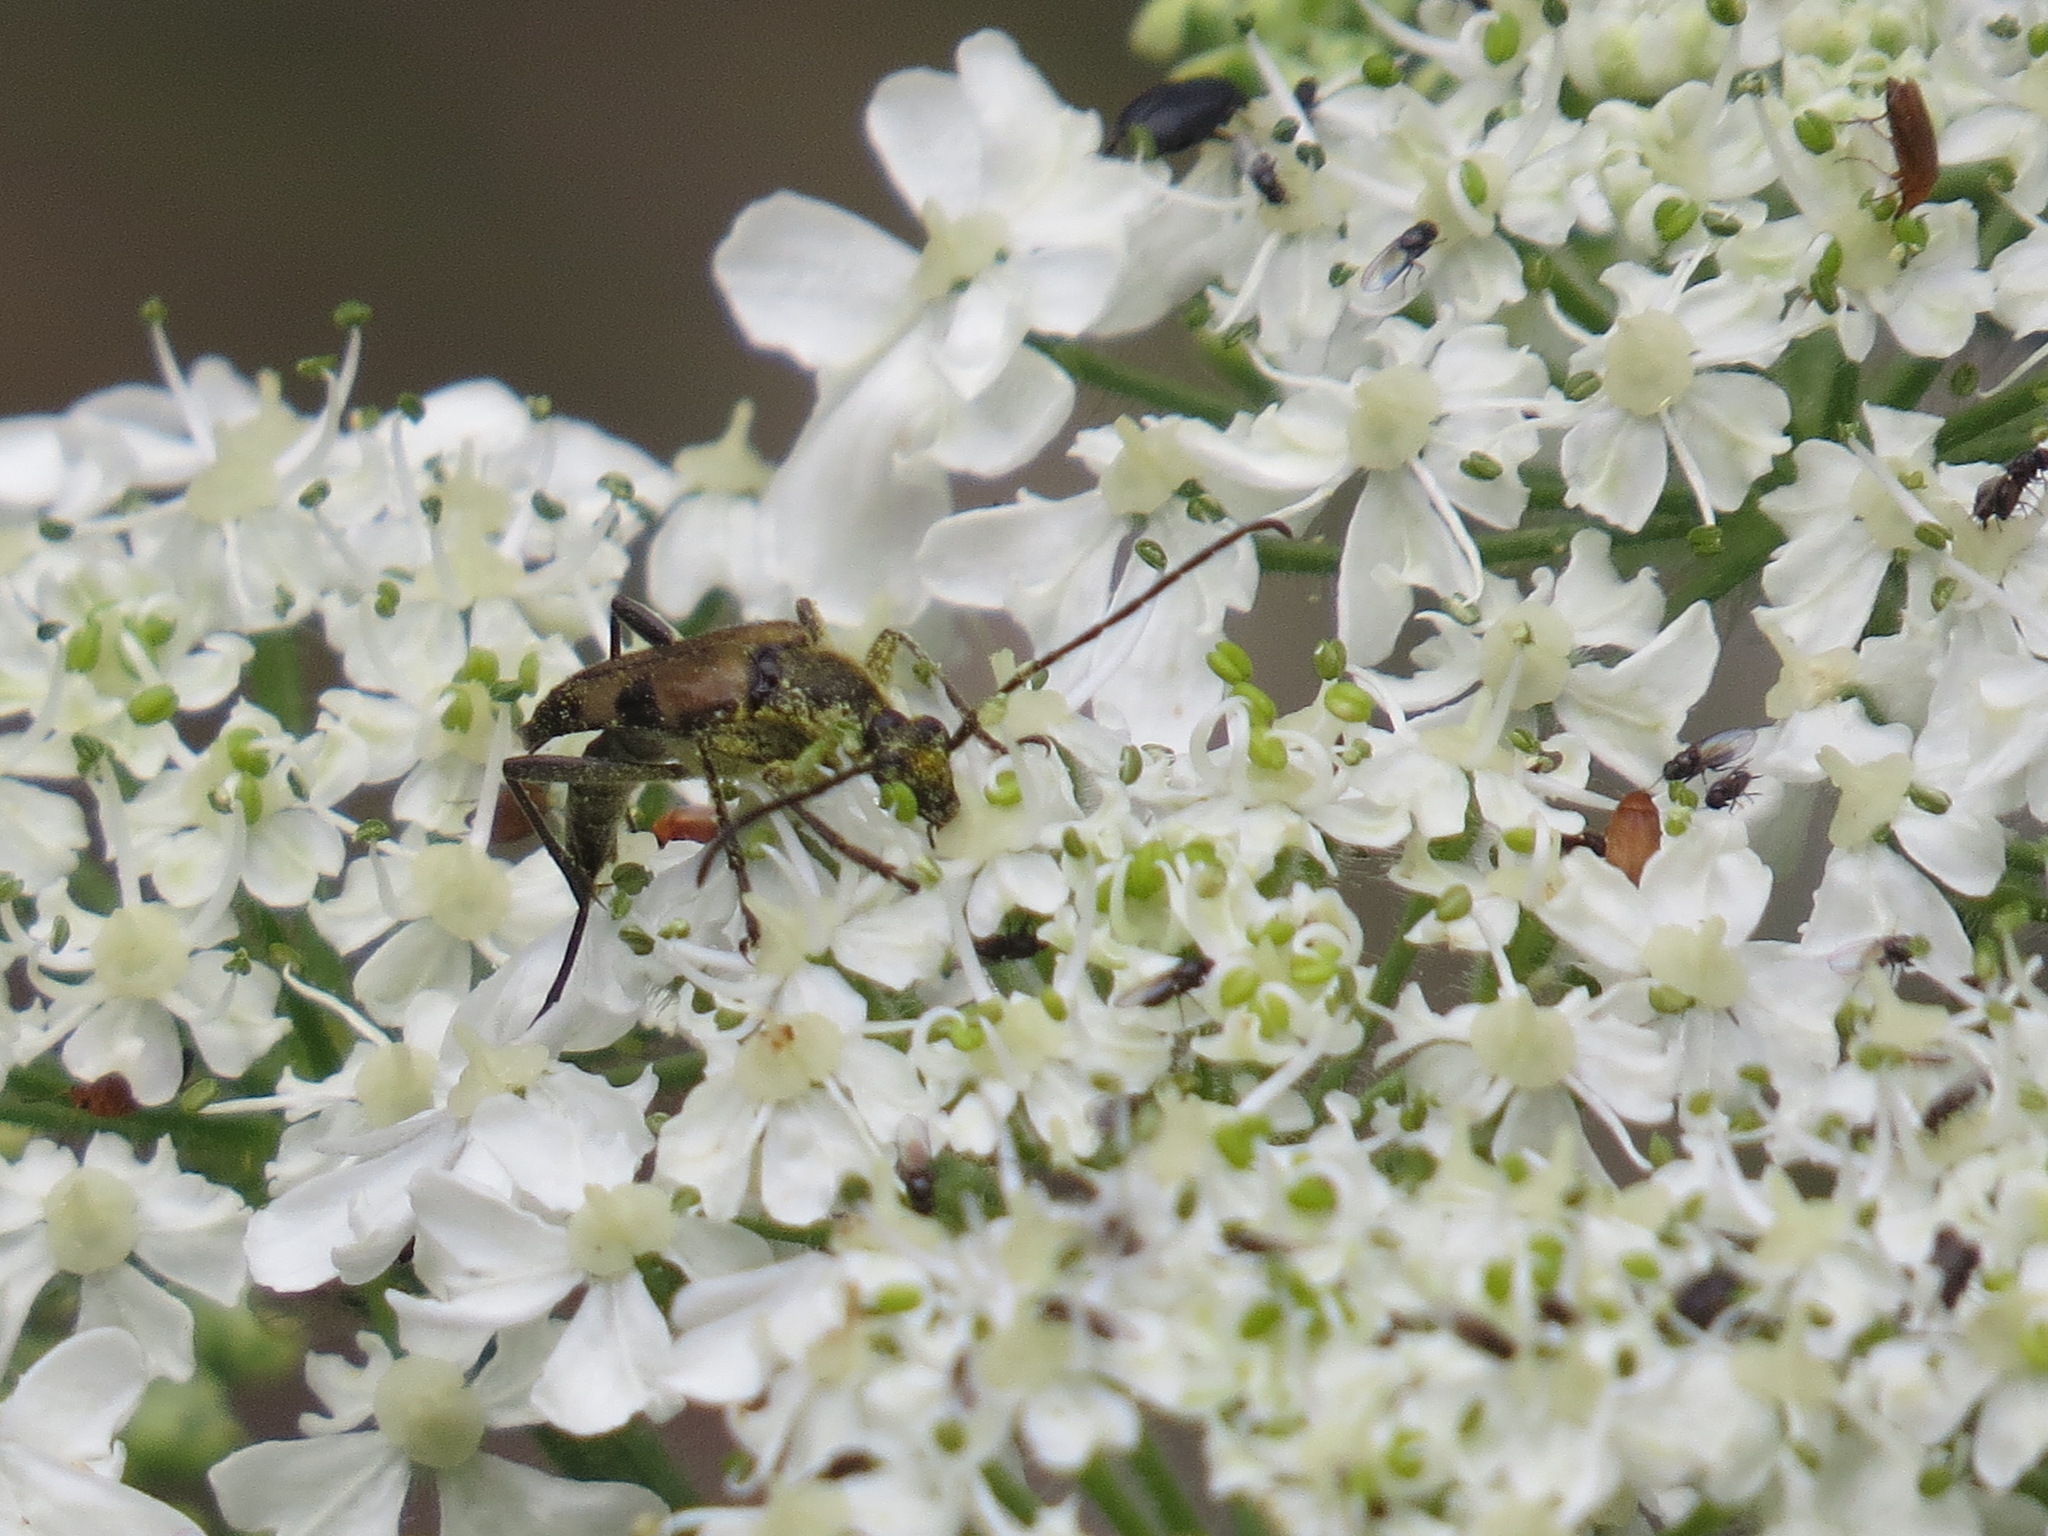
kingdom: Animalia
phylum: Arthropoda
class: Insecta
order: Coleoptera
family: Cerambycidae
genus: Etorofus
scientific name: Etorofus
